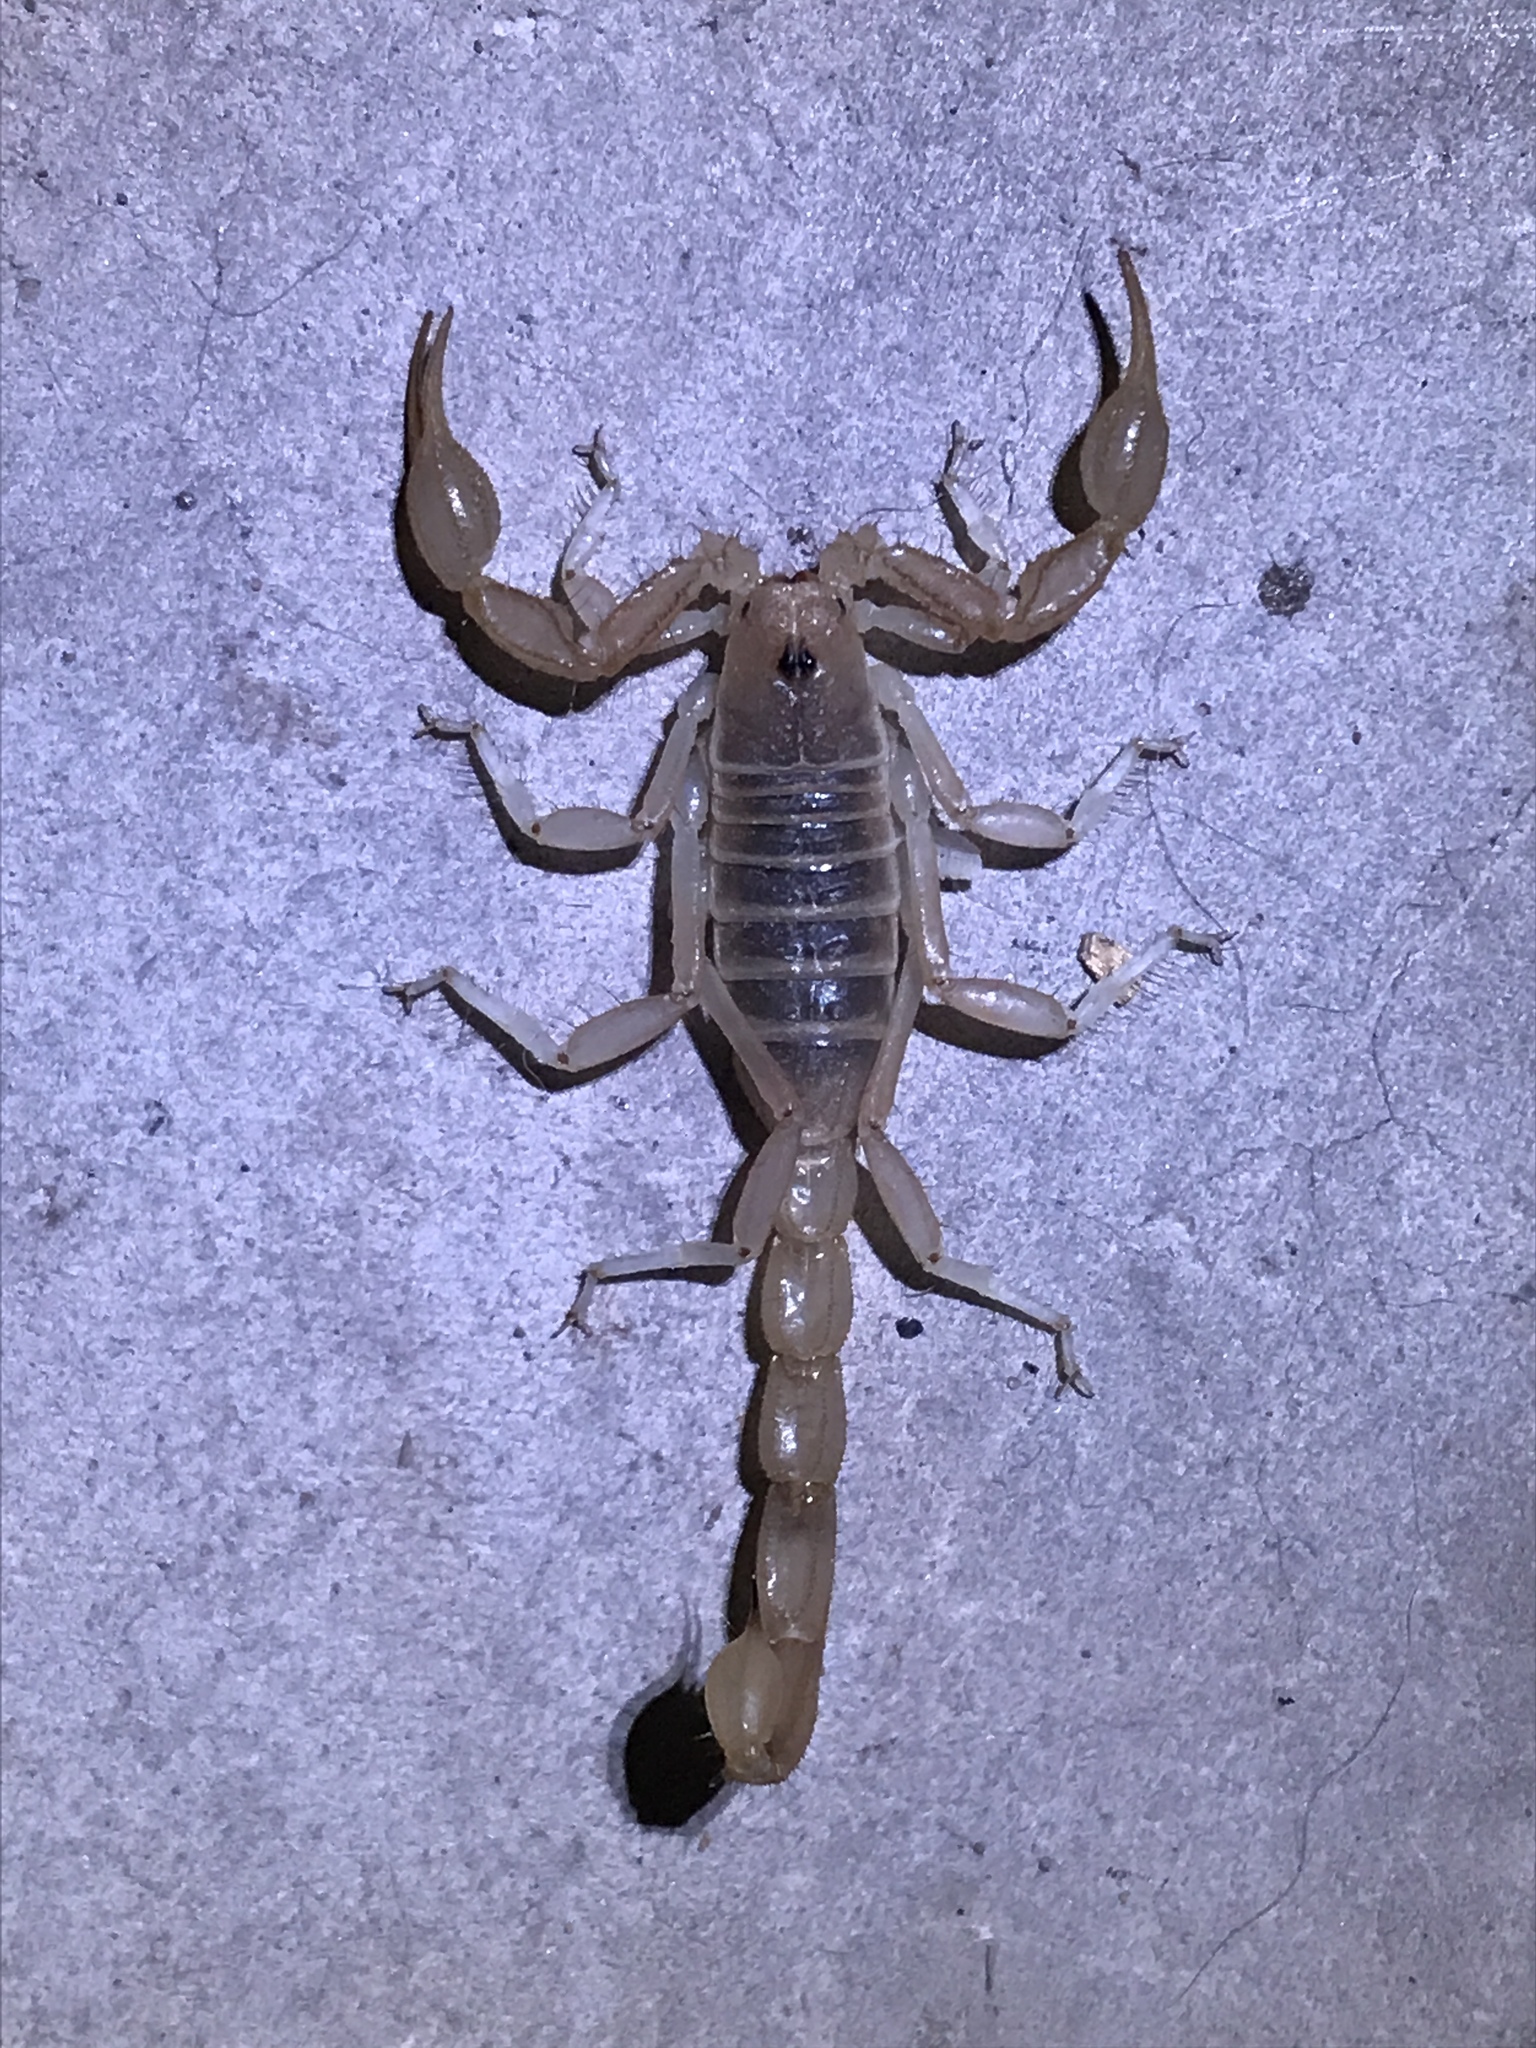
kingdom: Animalia
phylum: Arthropoda
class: Arachnida
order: Scorpiones
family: Vaejovidae
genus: Paruroctonus
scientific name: Paruroctonus boreus
